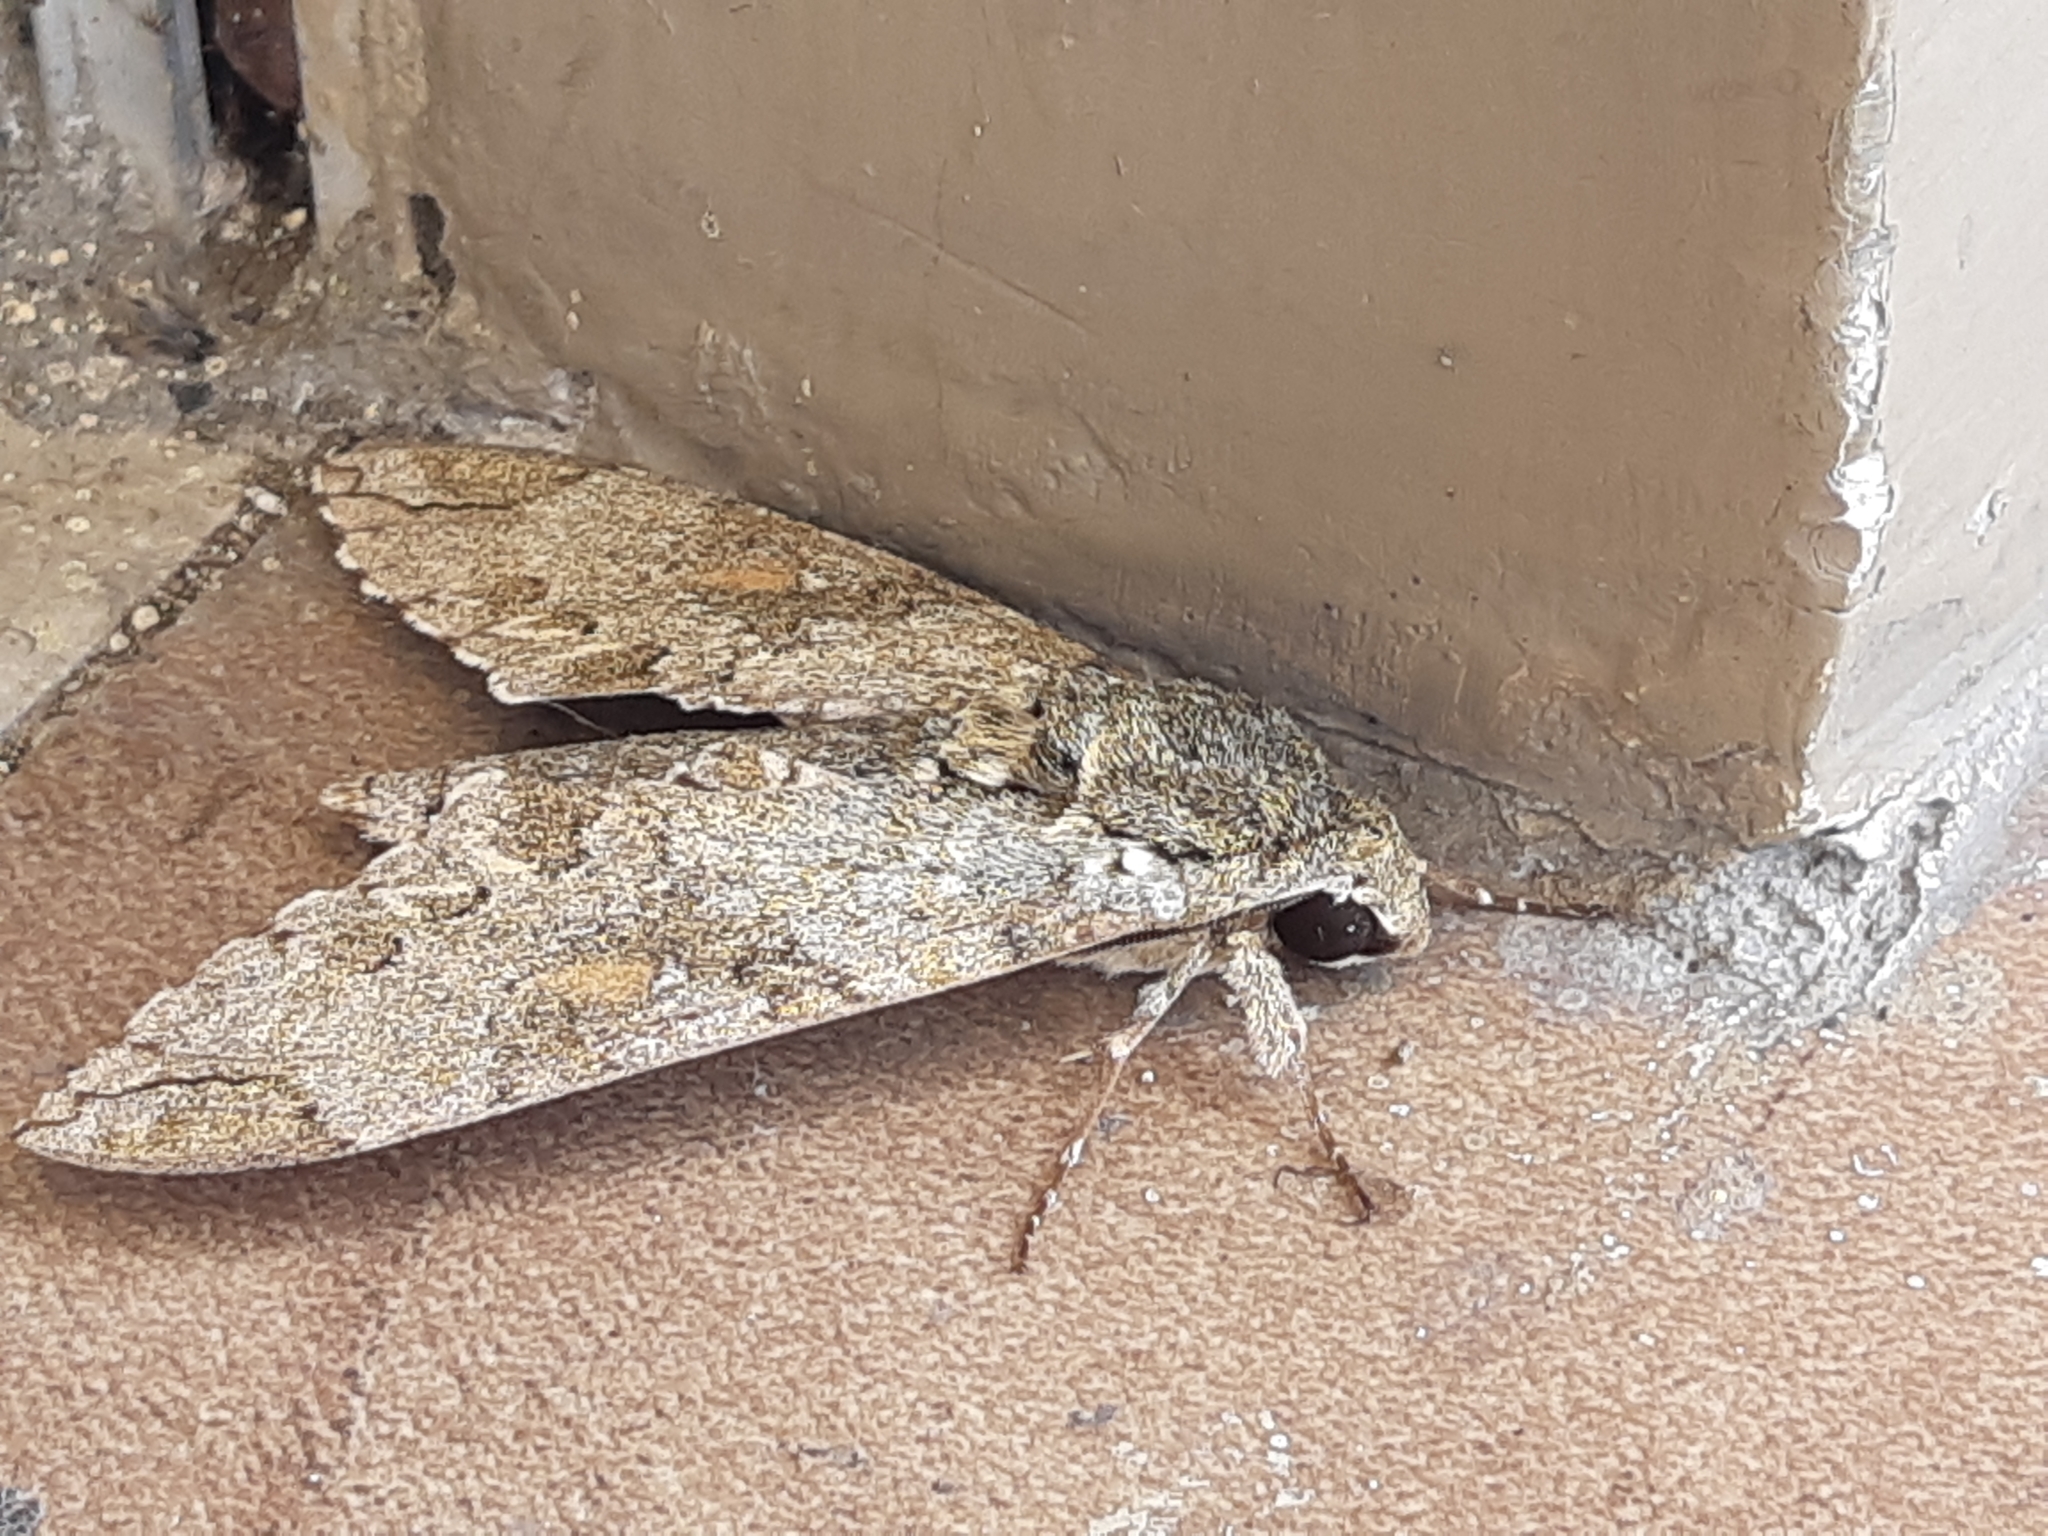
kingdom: Animalia
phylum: Arthropoda
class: Insecta
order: Lepidoptera
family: Sphingidae
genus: Manduca
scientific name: Manduca florestan
